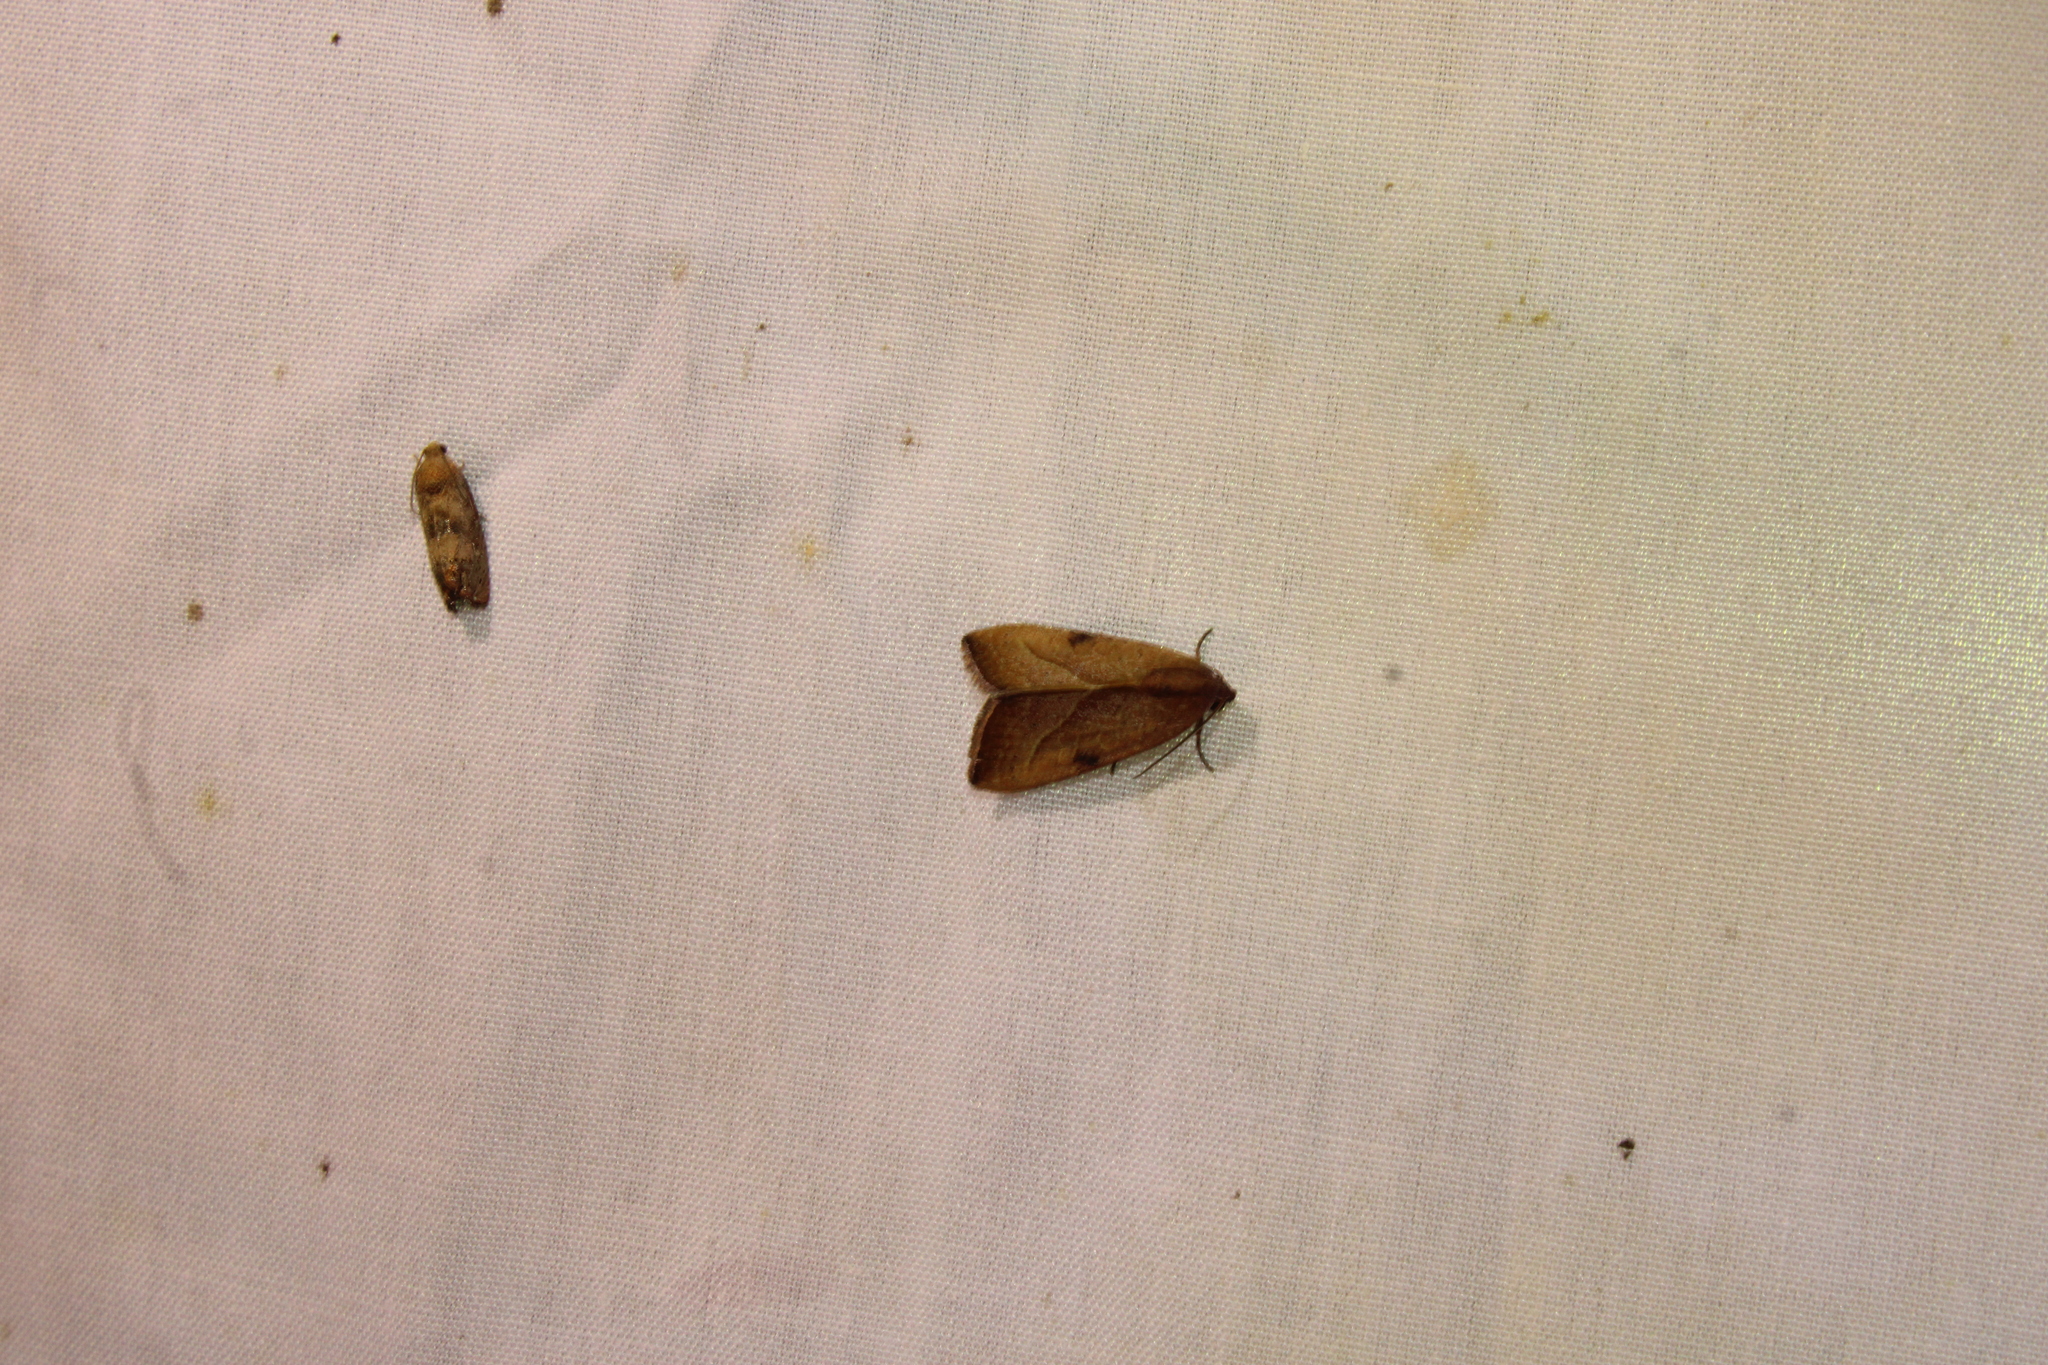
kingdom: Animalia
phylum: Arthropoda
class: Insecta
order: Lepidoptera
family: Noctuidae
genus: Galgula
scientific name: Galgula partita
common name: Wedgeling
